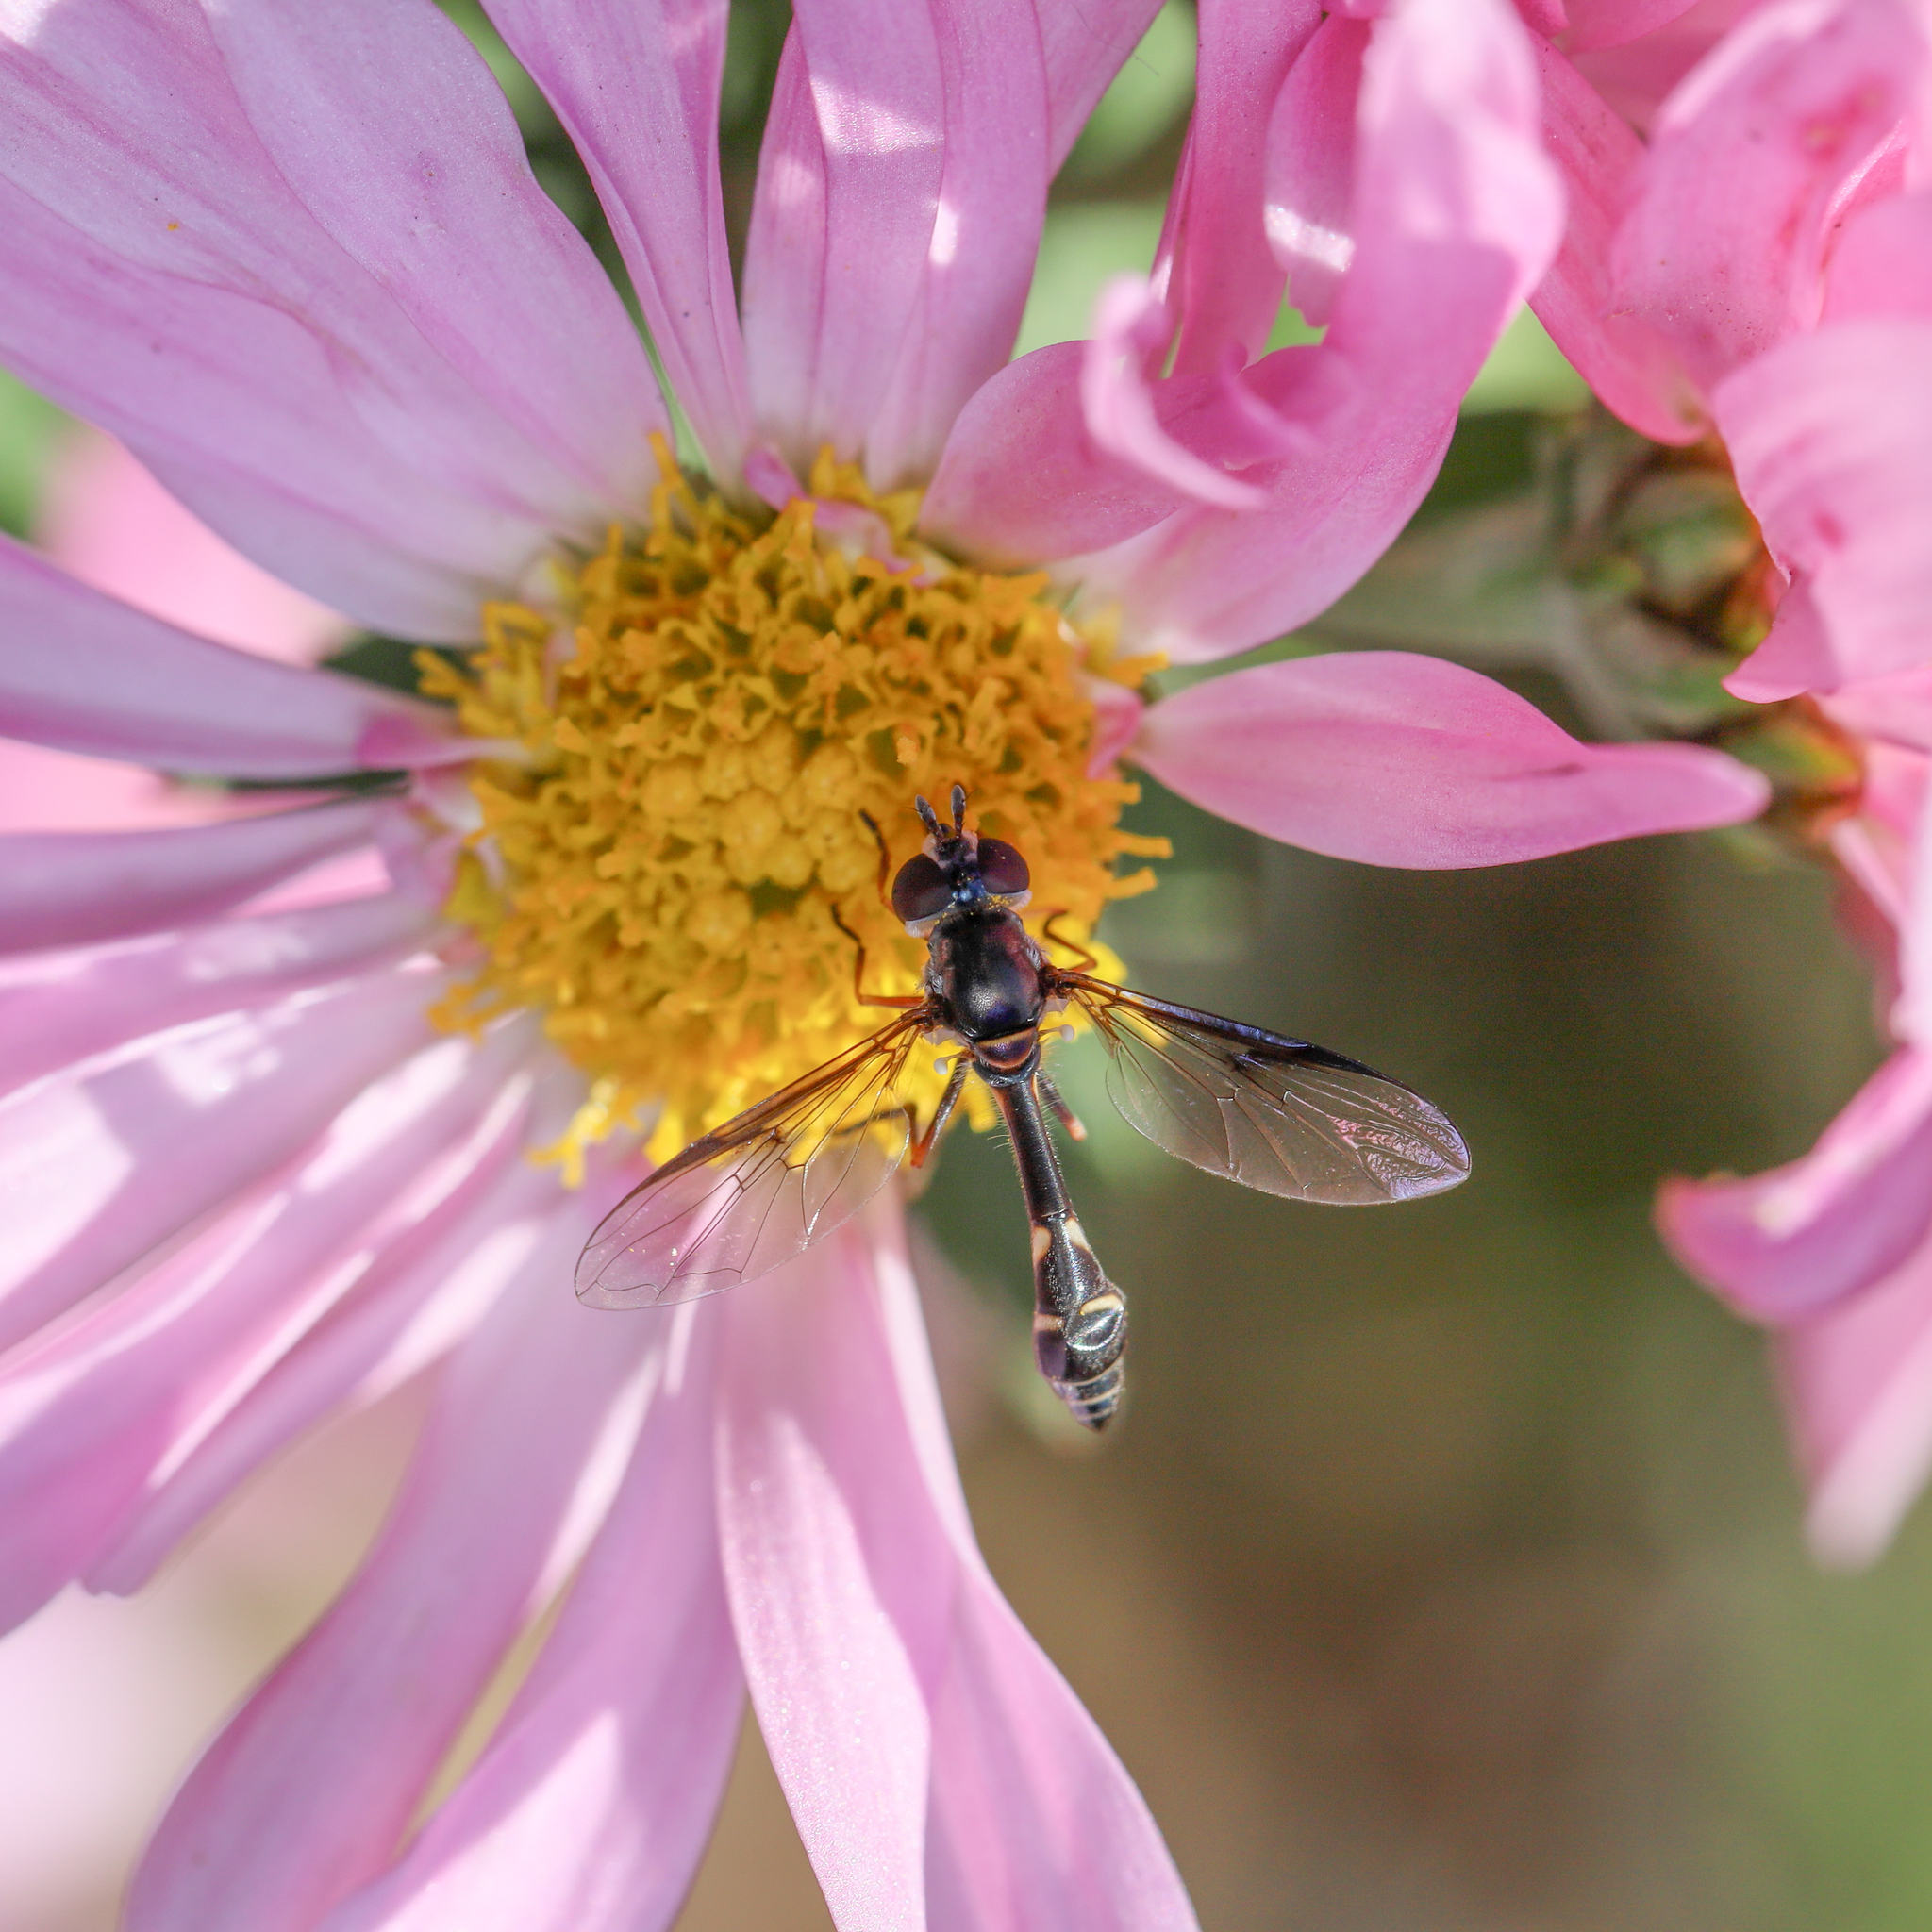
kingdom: Animalia
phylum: Arthropoda
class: Insecta
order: Diptera
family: Syrphidae
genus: Dioprosopa
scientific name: Dioprosopa clavatus
